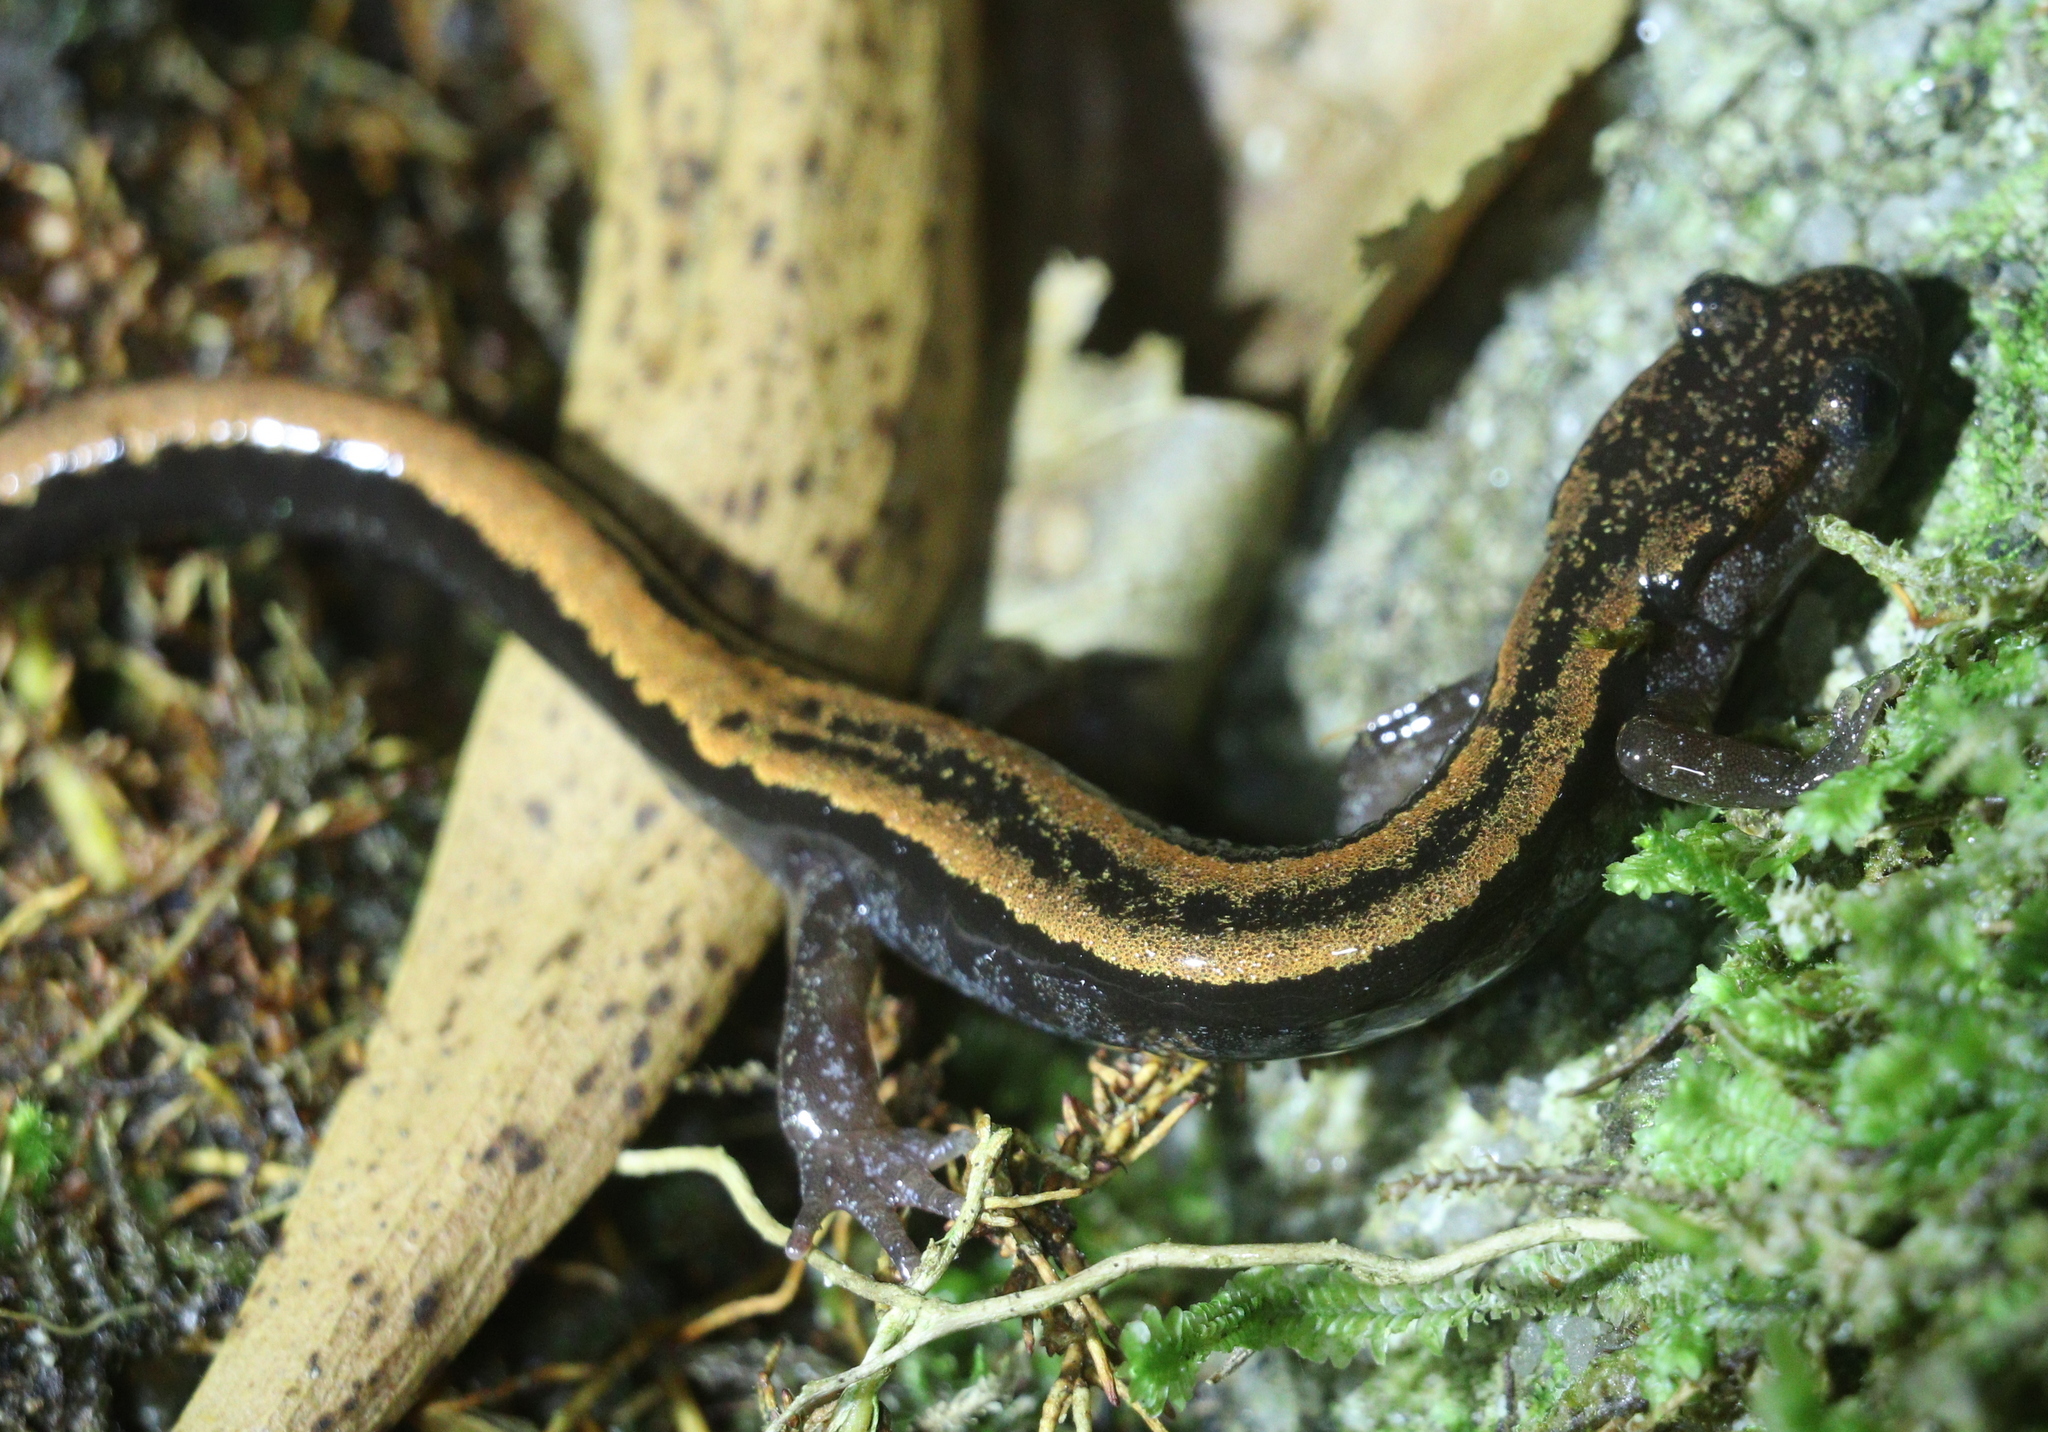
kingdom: Animalia
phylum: Chordata
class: Amphibia
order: Caudata
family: Salamandridae
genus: Chioglossa
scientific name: Chioglossa lusitanica
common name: Gold-striped salamander
